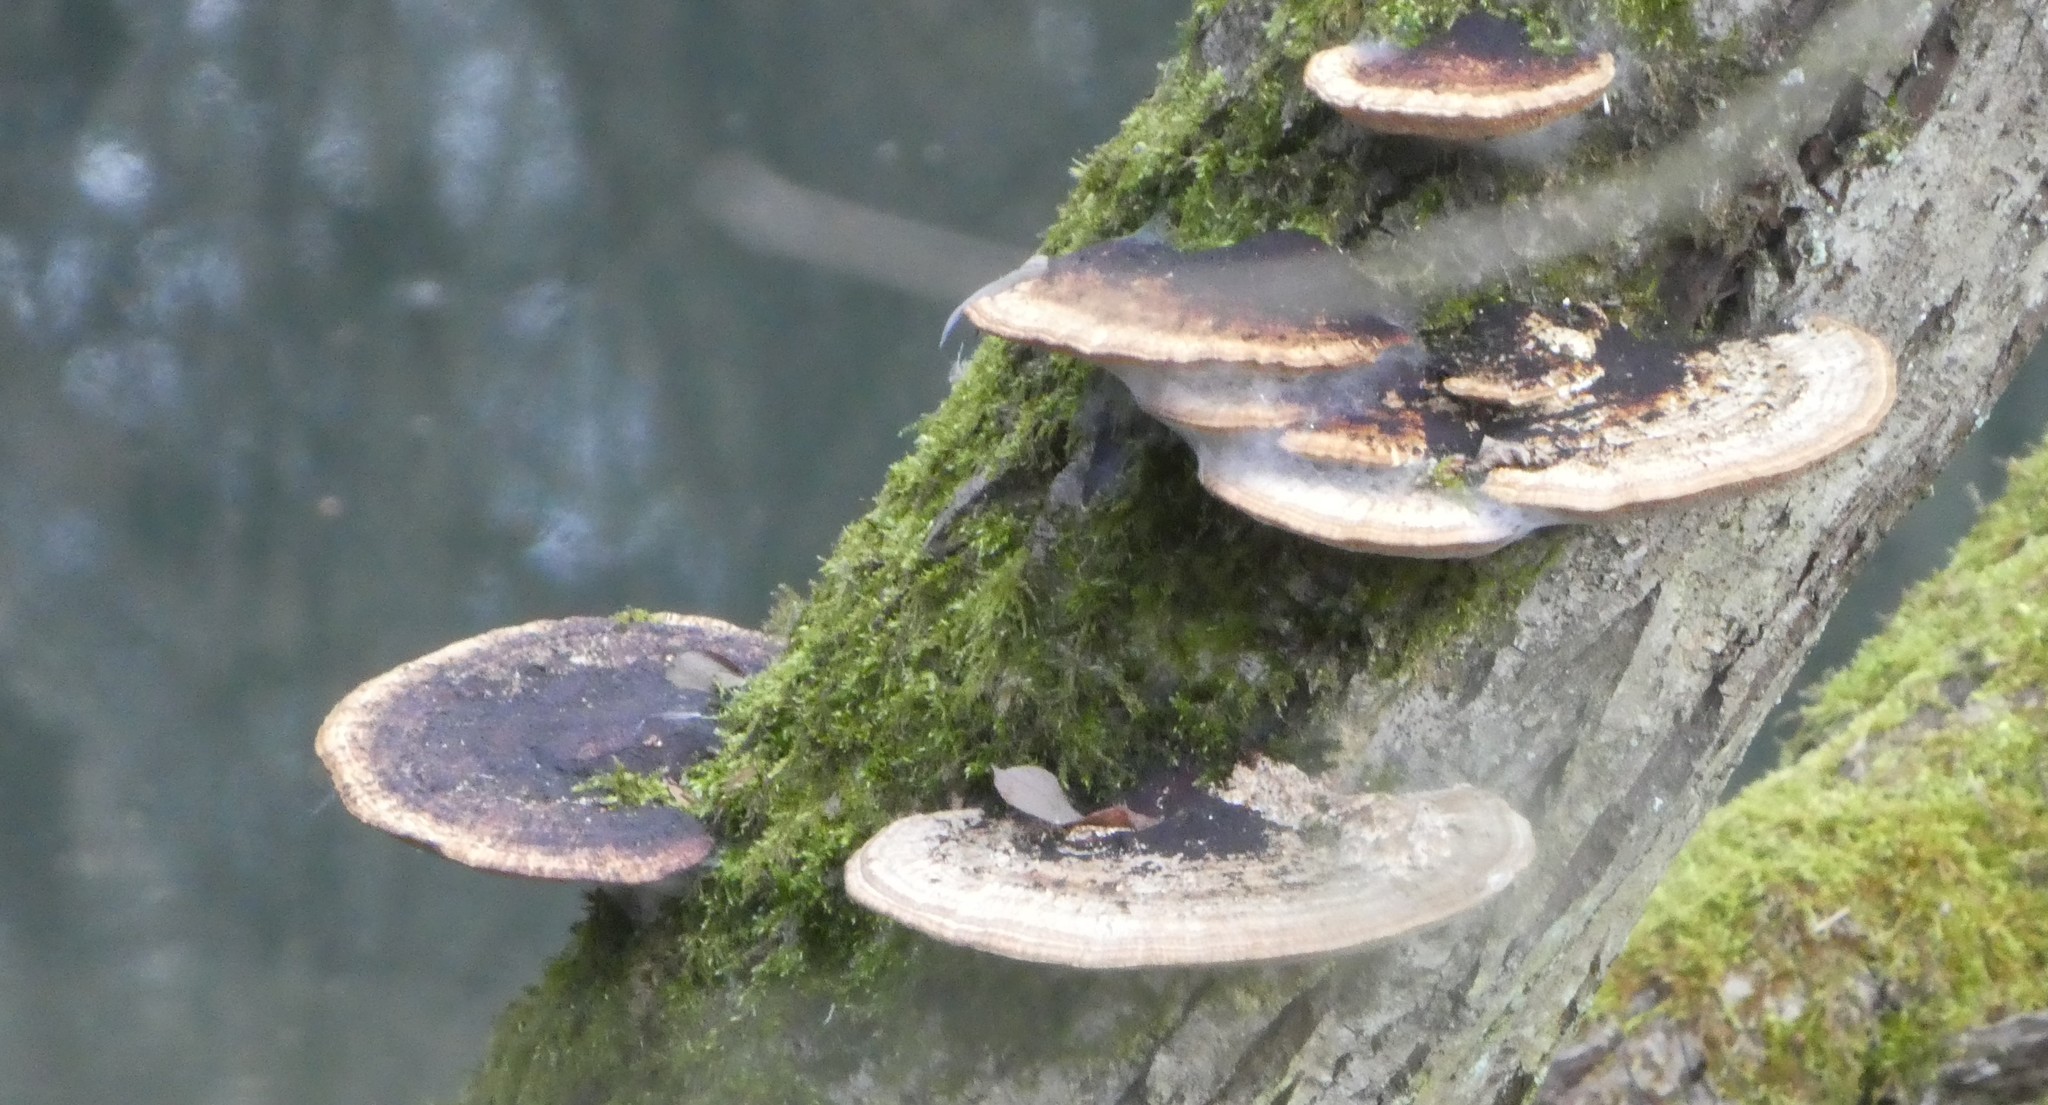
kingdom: Fungi
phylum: Basidiomycota
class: Agaricomycetes
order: Polyporales
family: Polyporaceae
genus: Daedaleopsis
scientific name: Daedaleopsis confragosa
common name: Blushing bracket
